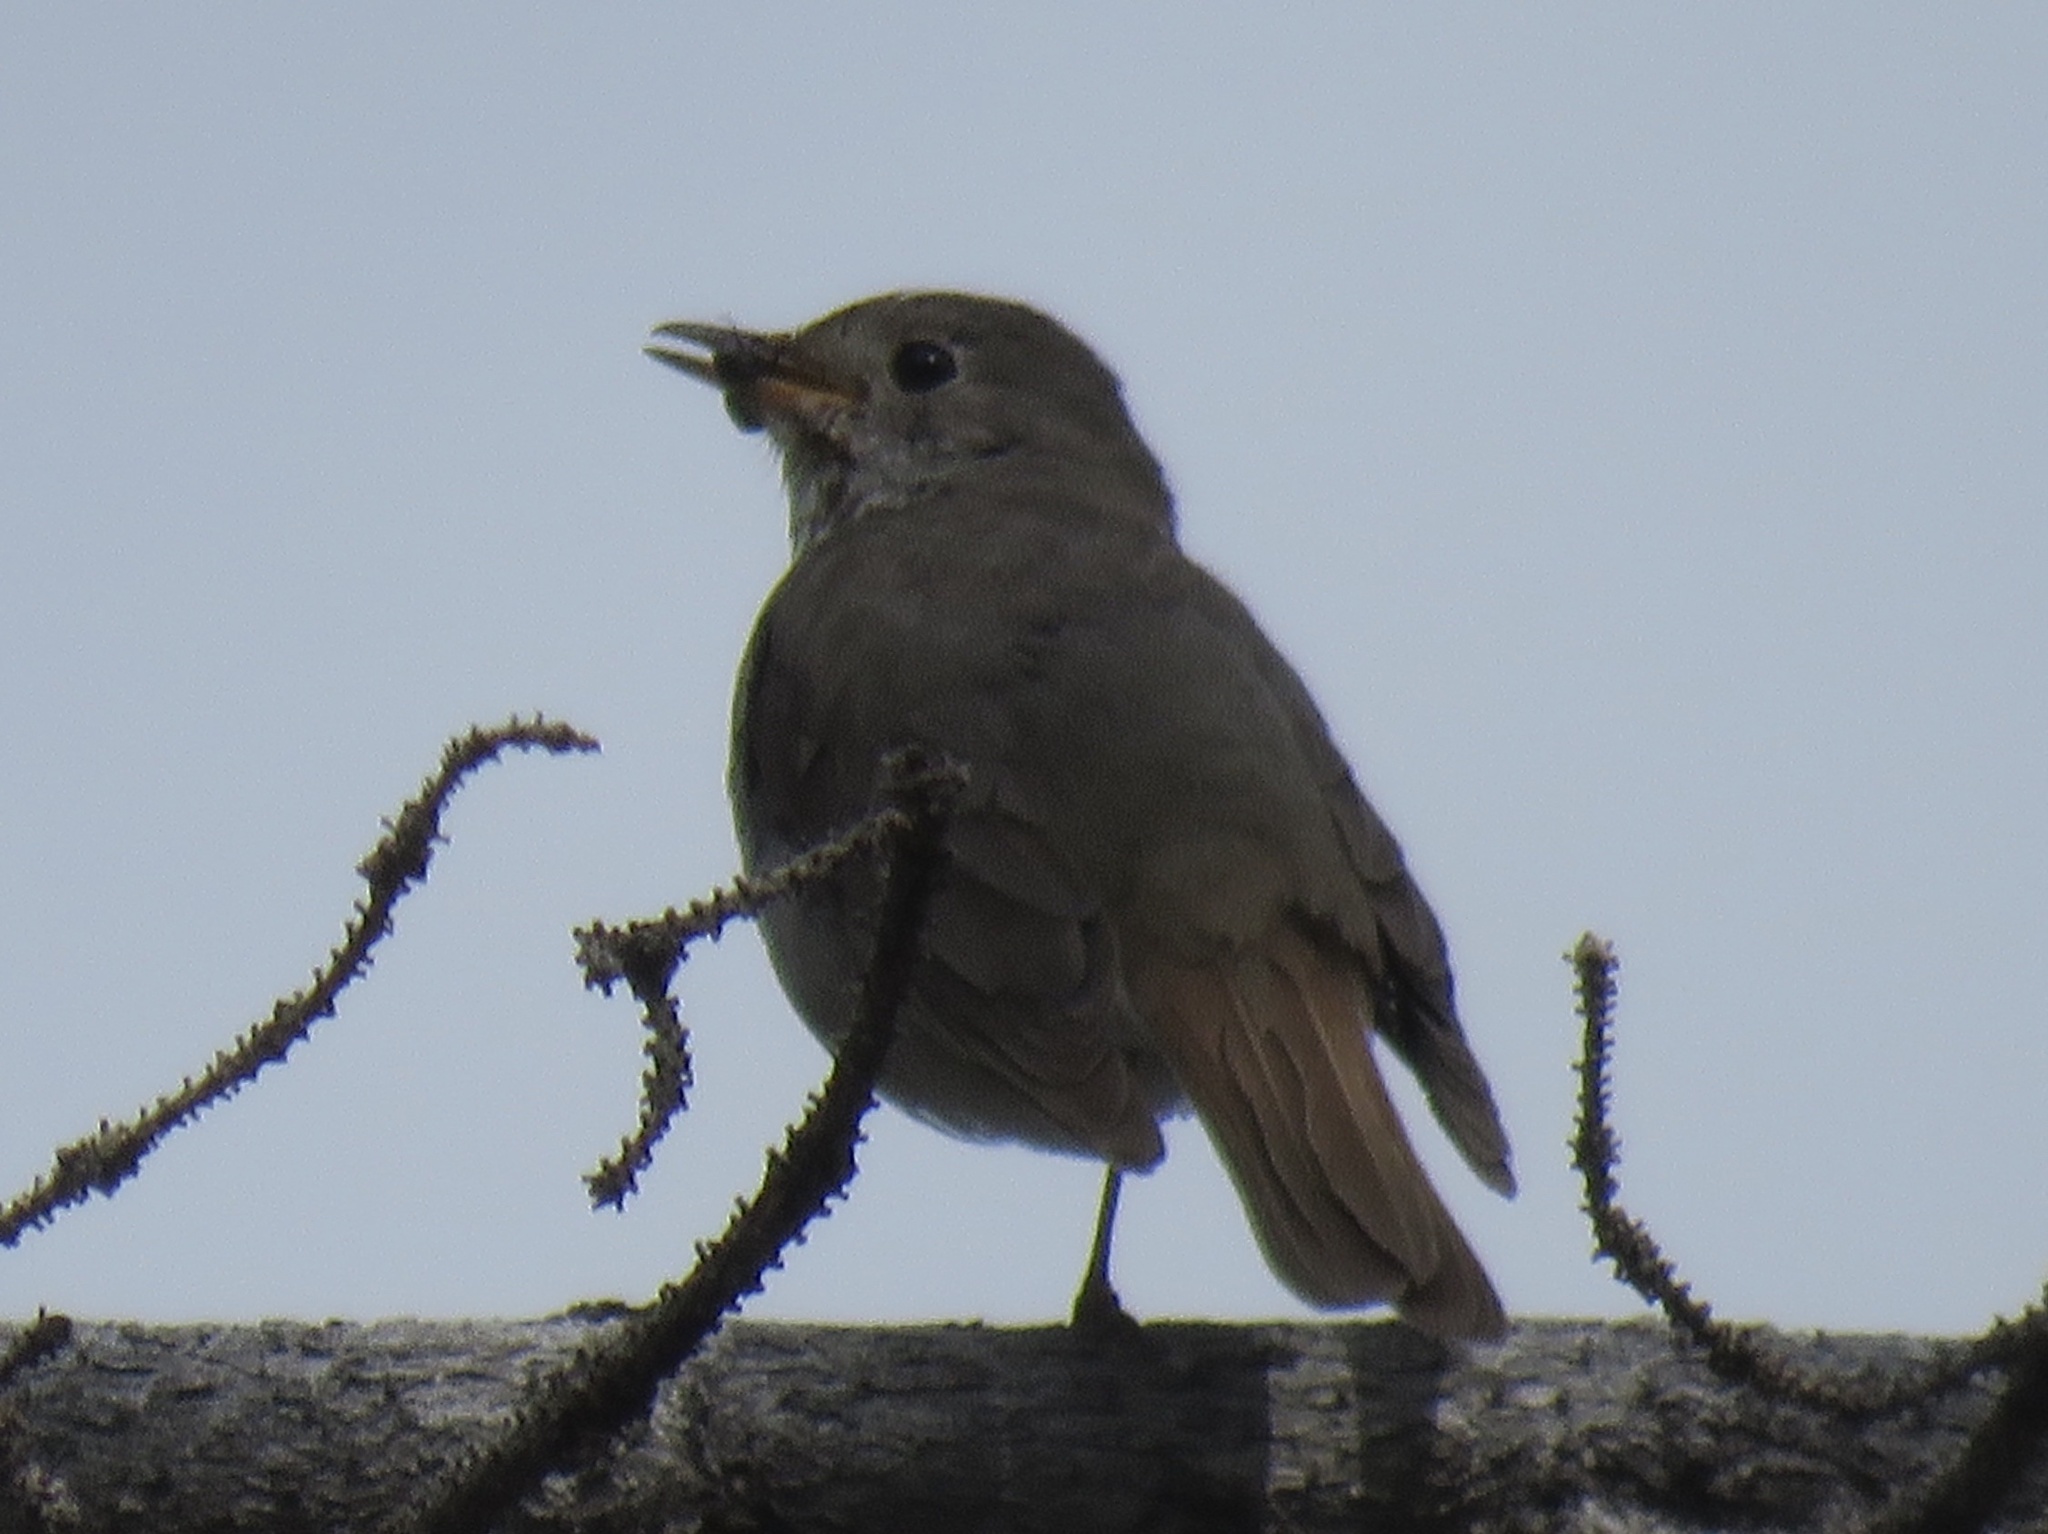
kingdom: Animalia
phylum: Chordata
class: Aves
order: Passeriformes
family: Turdidae
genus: Catharus
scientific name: Catharus guttatus
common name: Hermit thrush
